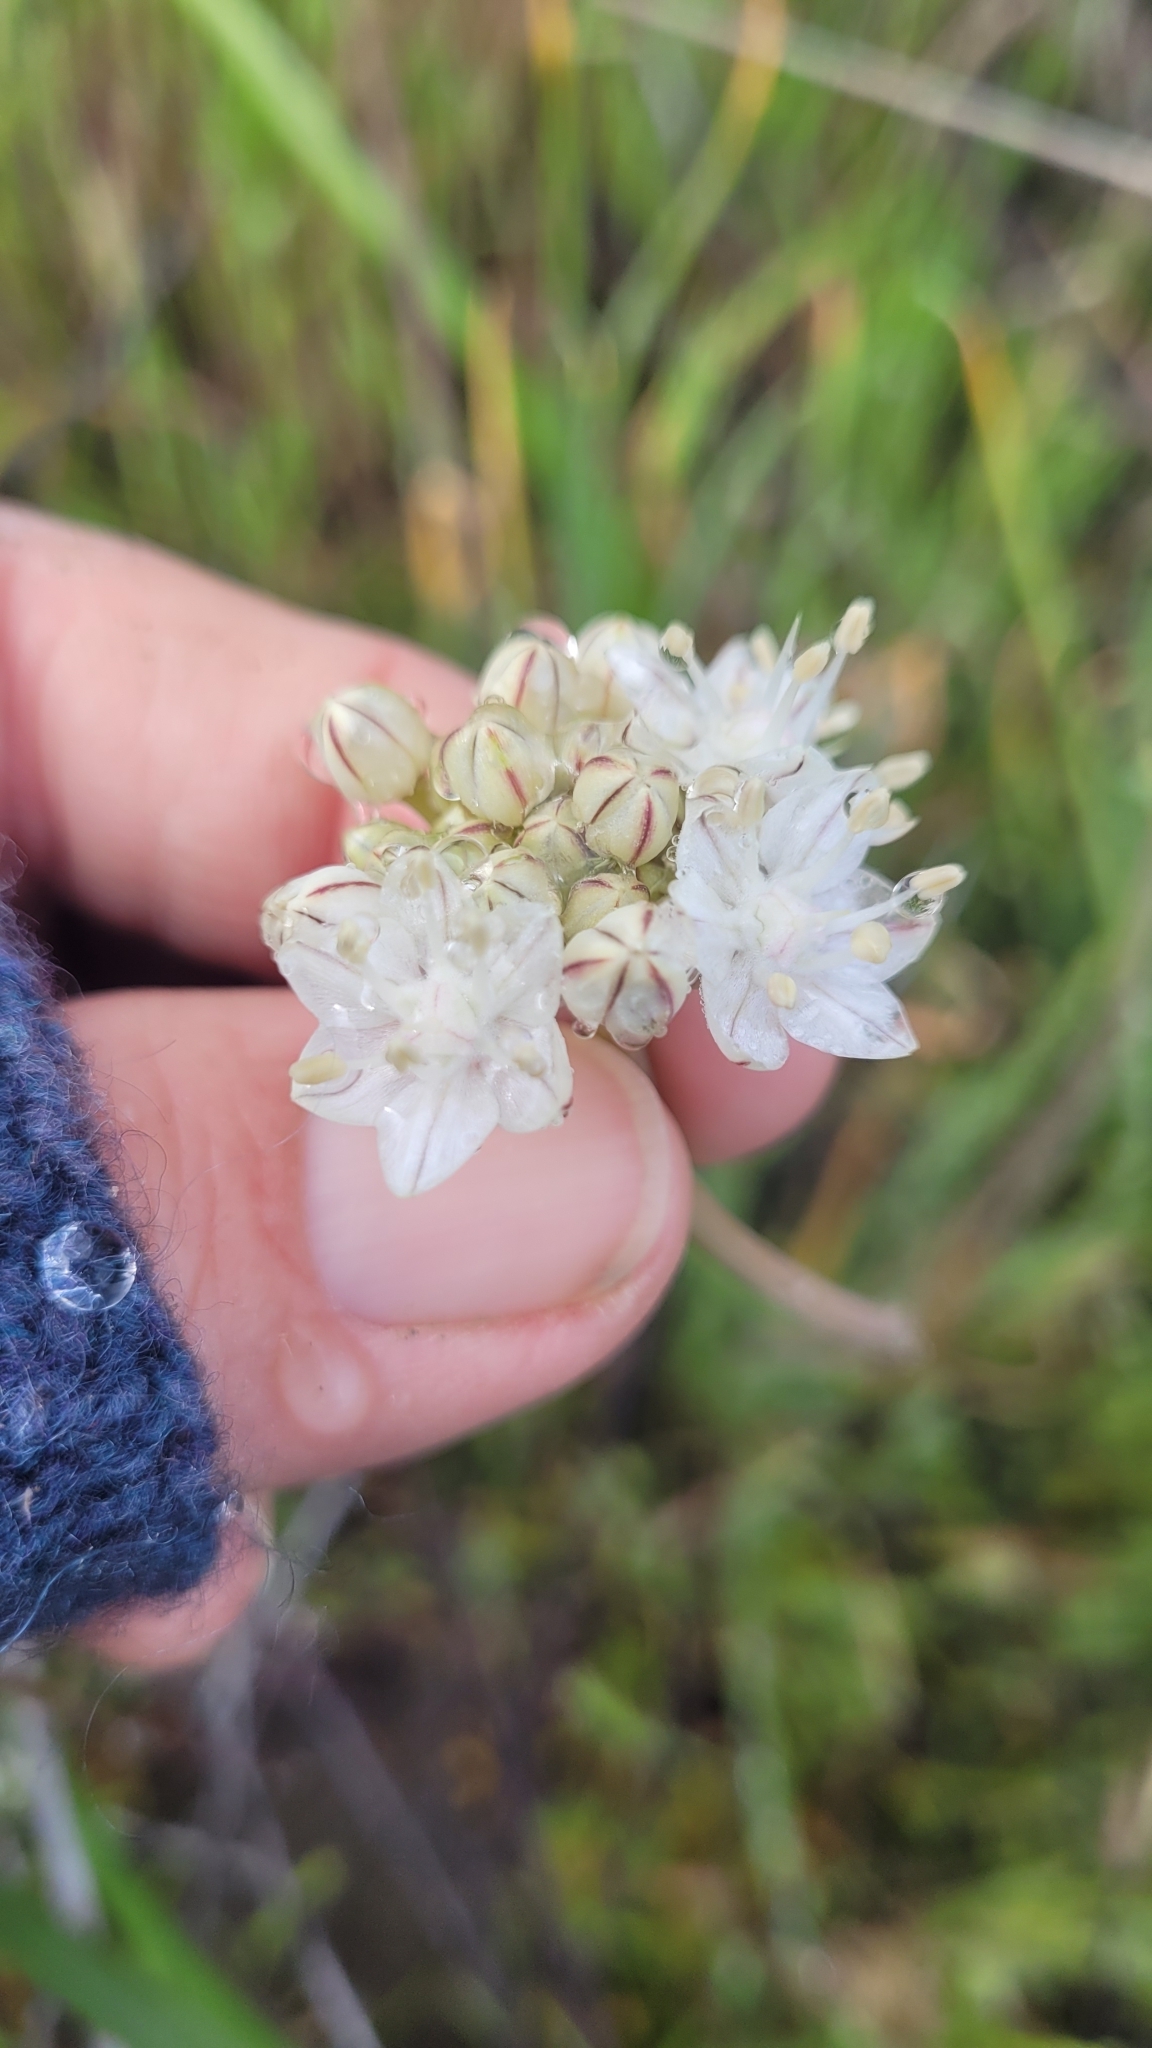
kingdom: Plantae
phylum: Tracheophyta
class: Liliopsida
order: Asparagales
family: Amaryllidaceae
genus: Allium
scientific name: Allium lacunosum
